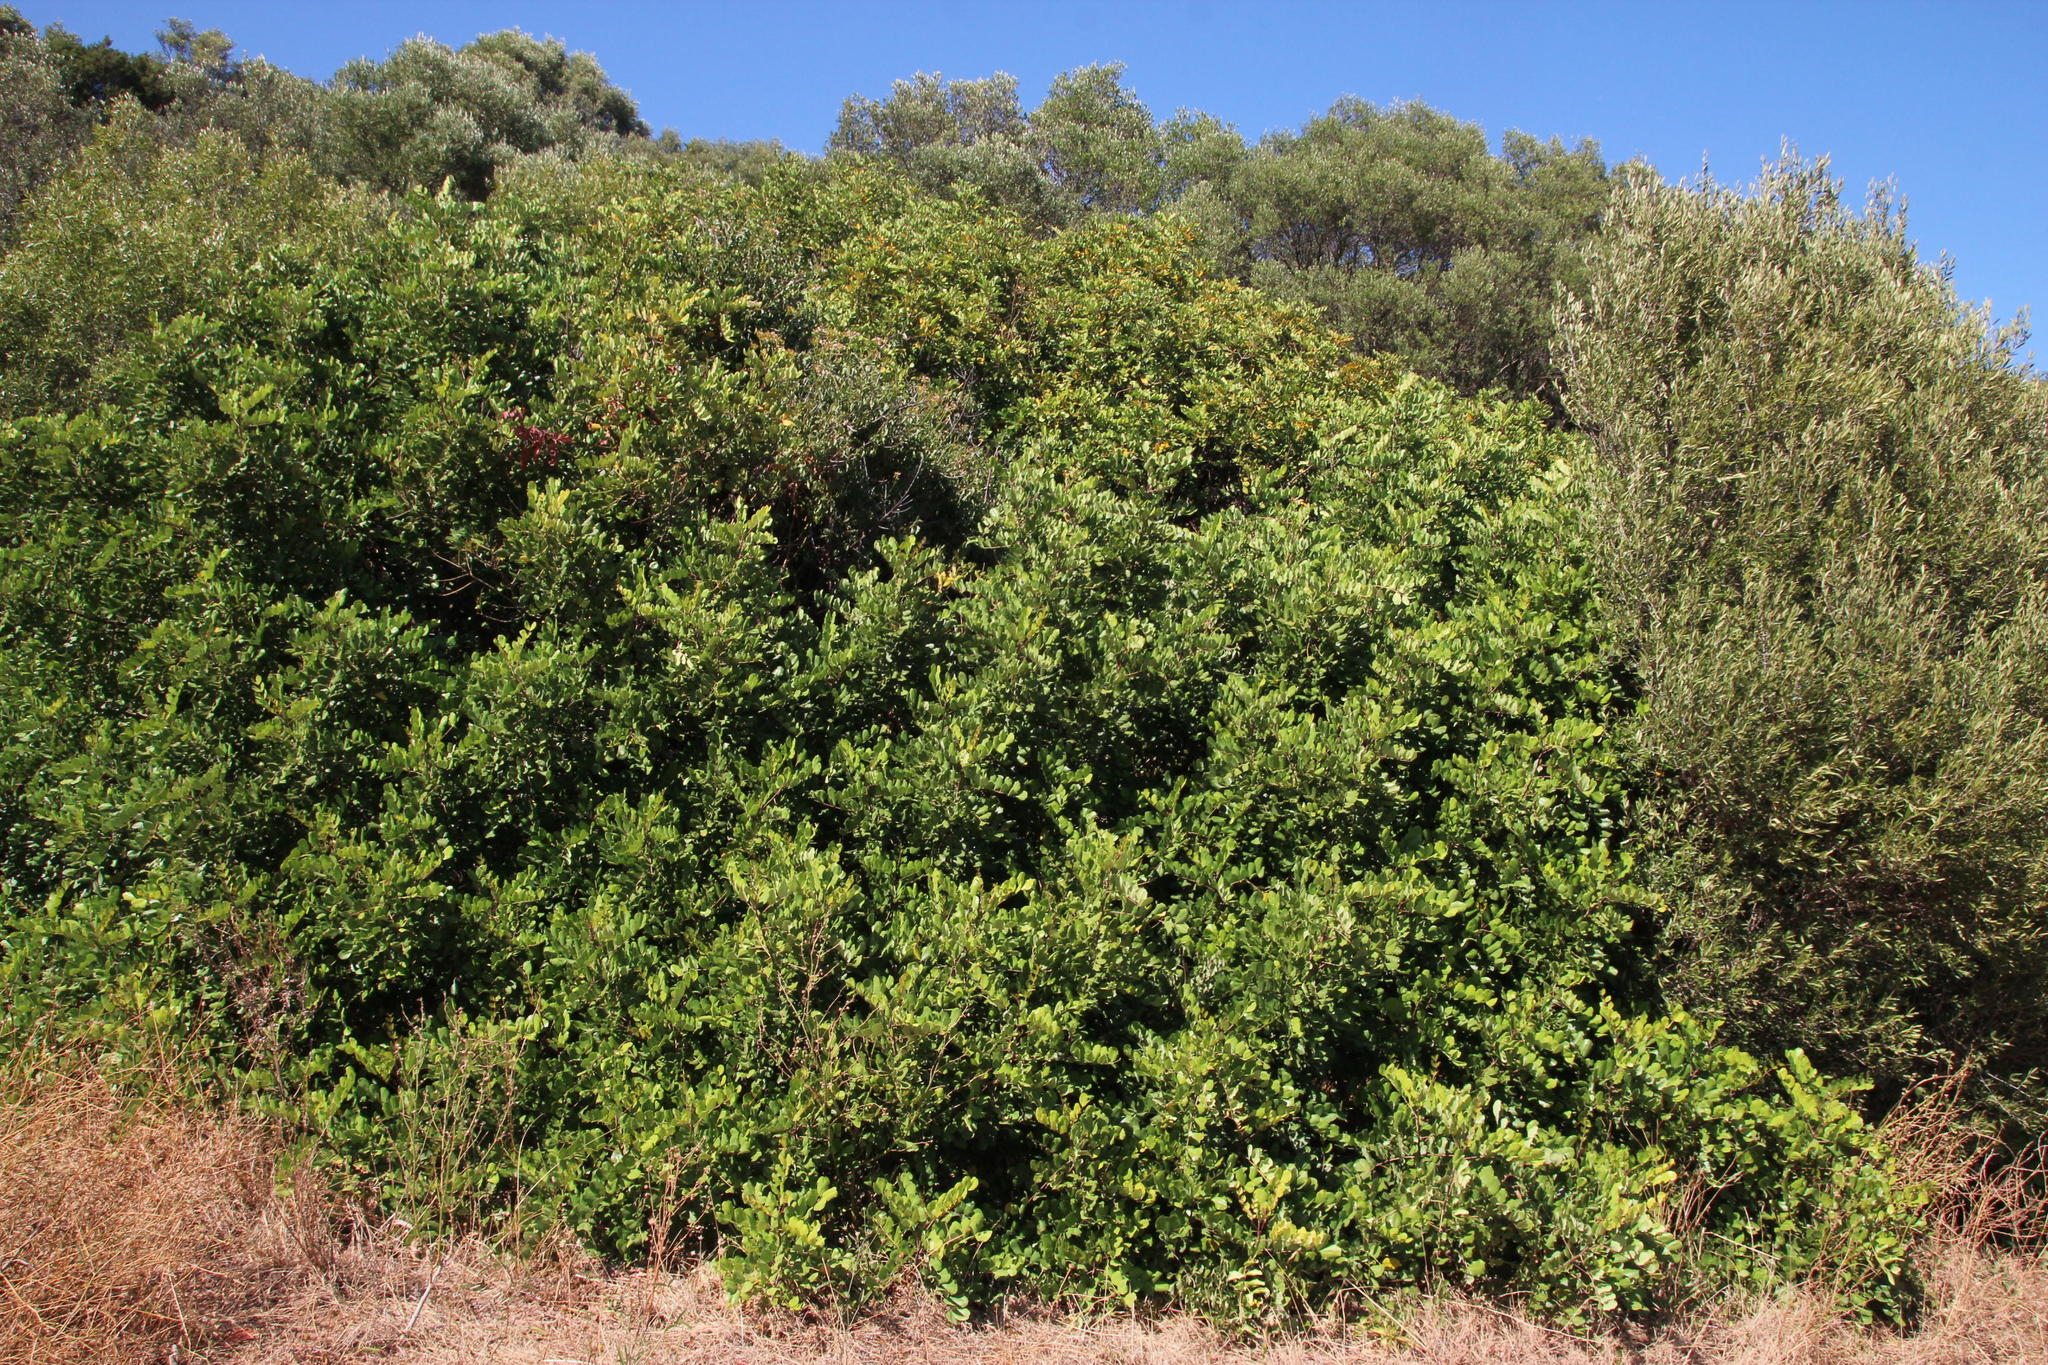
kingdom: Plantae
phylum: Tracheophyta
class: Magnoliopsida
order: Fabales
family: Fabaceae
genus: Ceratonia
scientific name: Ceratonia siliqua
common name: Carob
